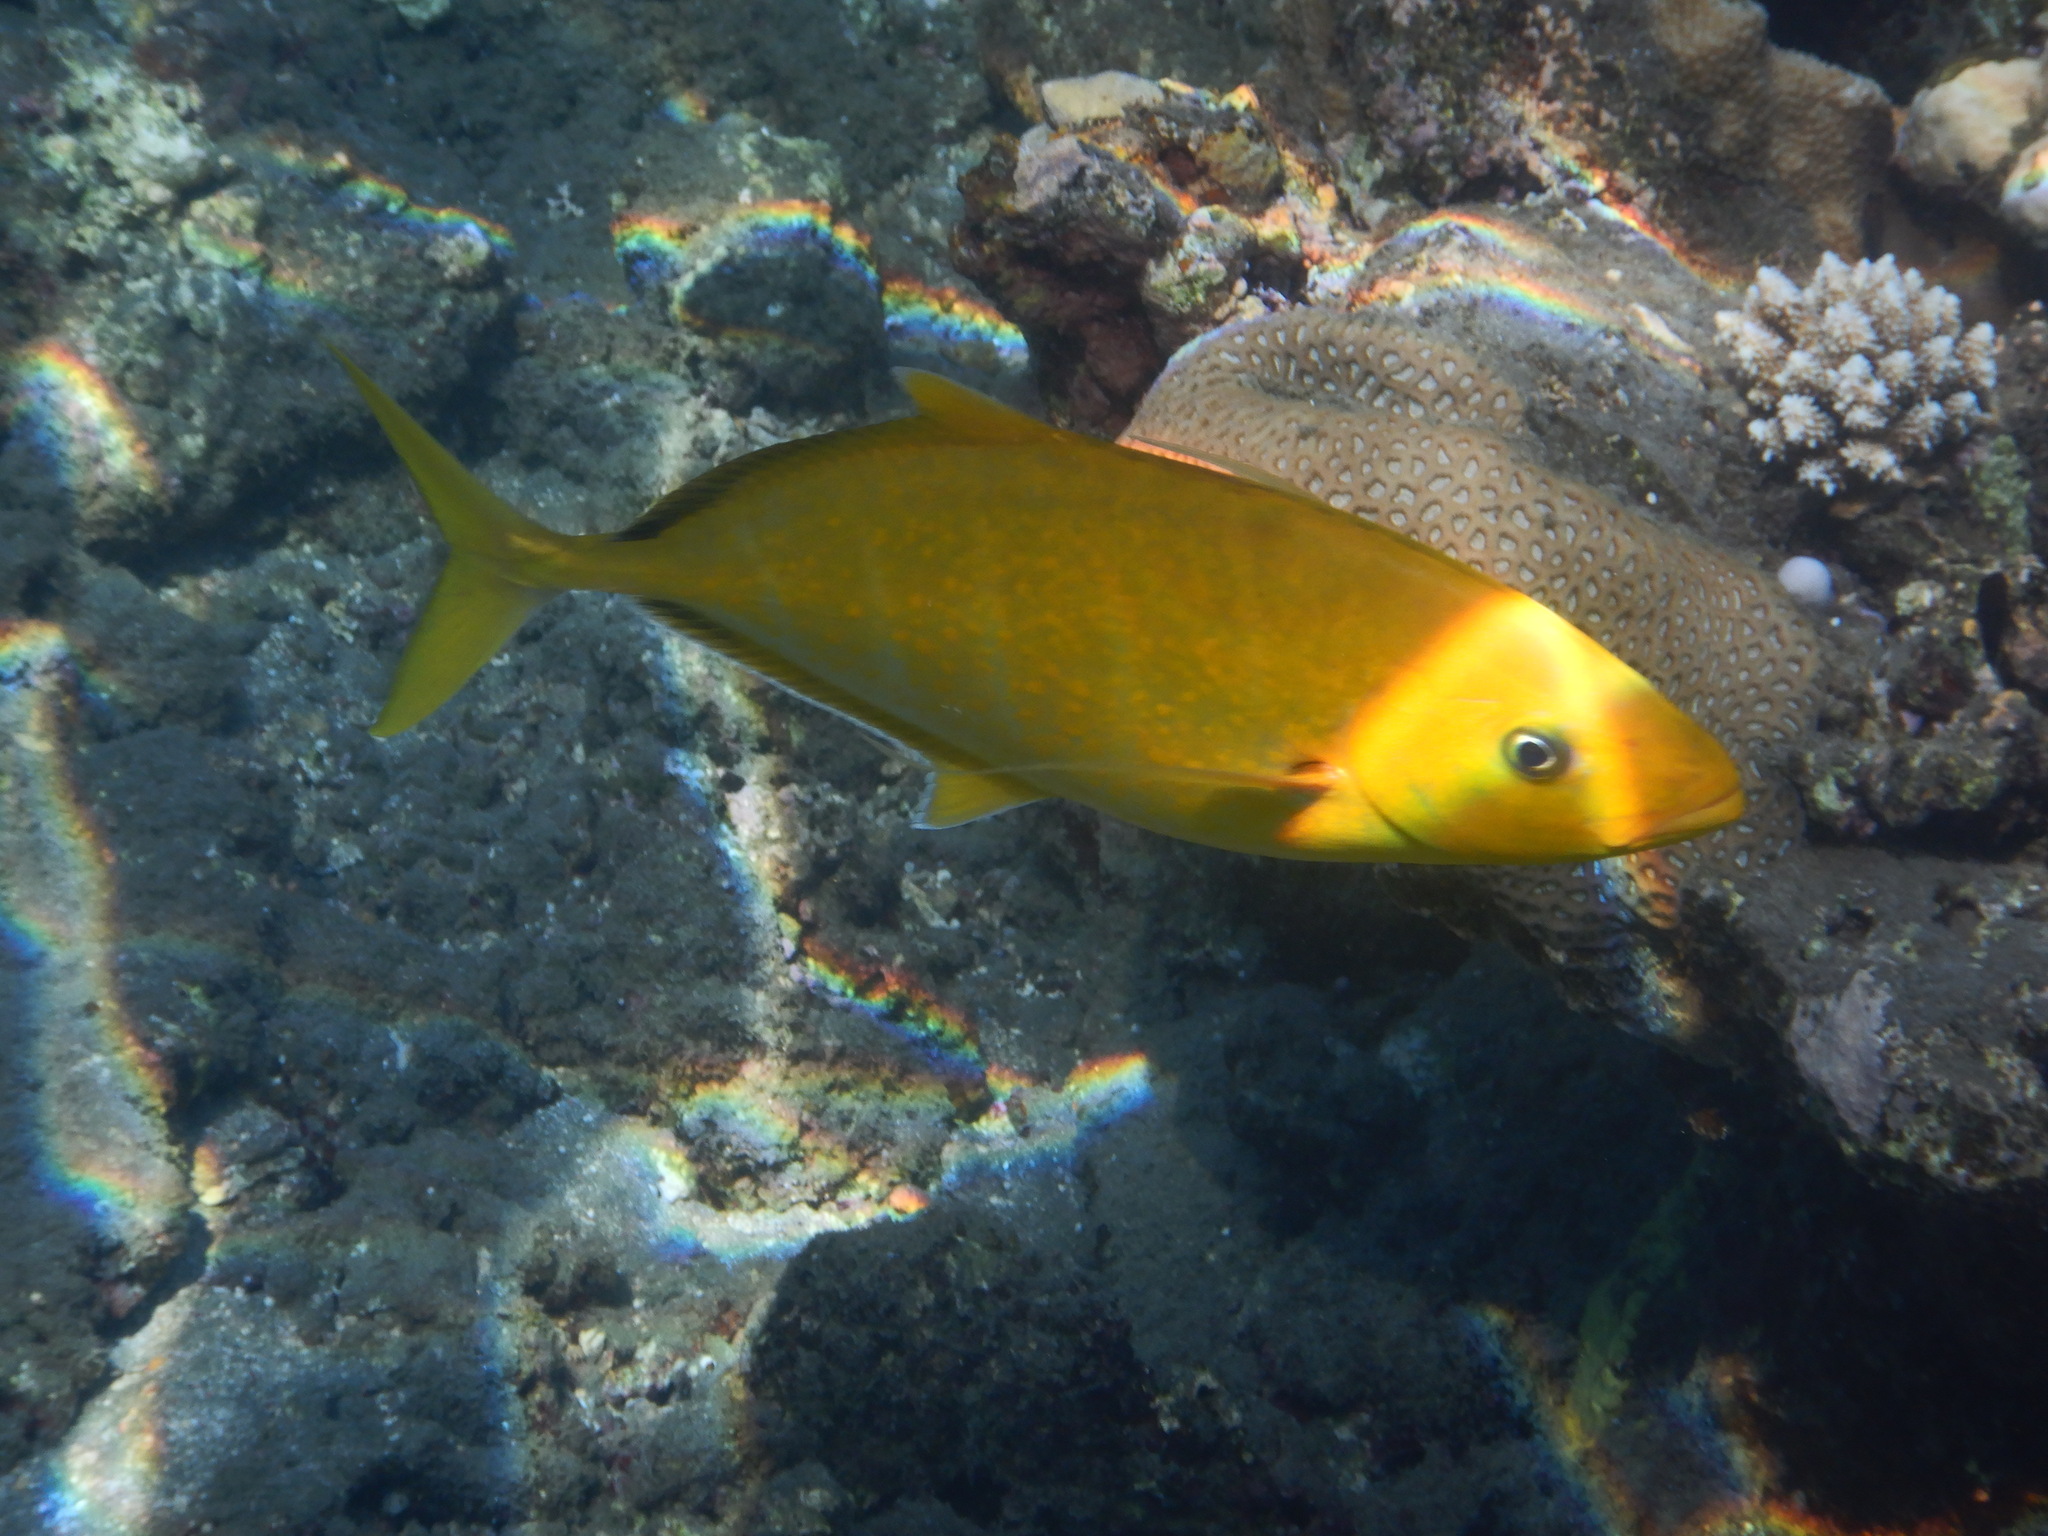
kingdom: Animalia
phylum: Chordata
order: Perciformes
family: Carangidae
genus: Flavocaranx
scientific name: Flavocaranx bajad
